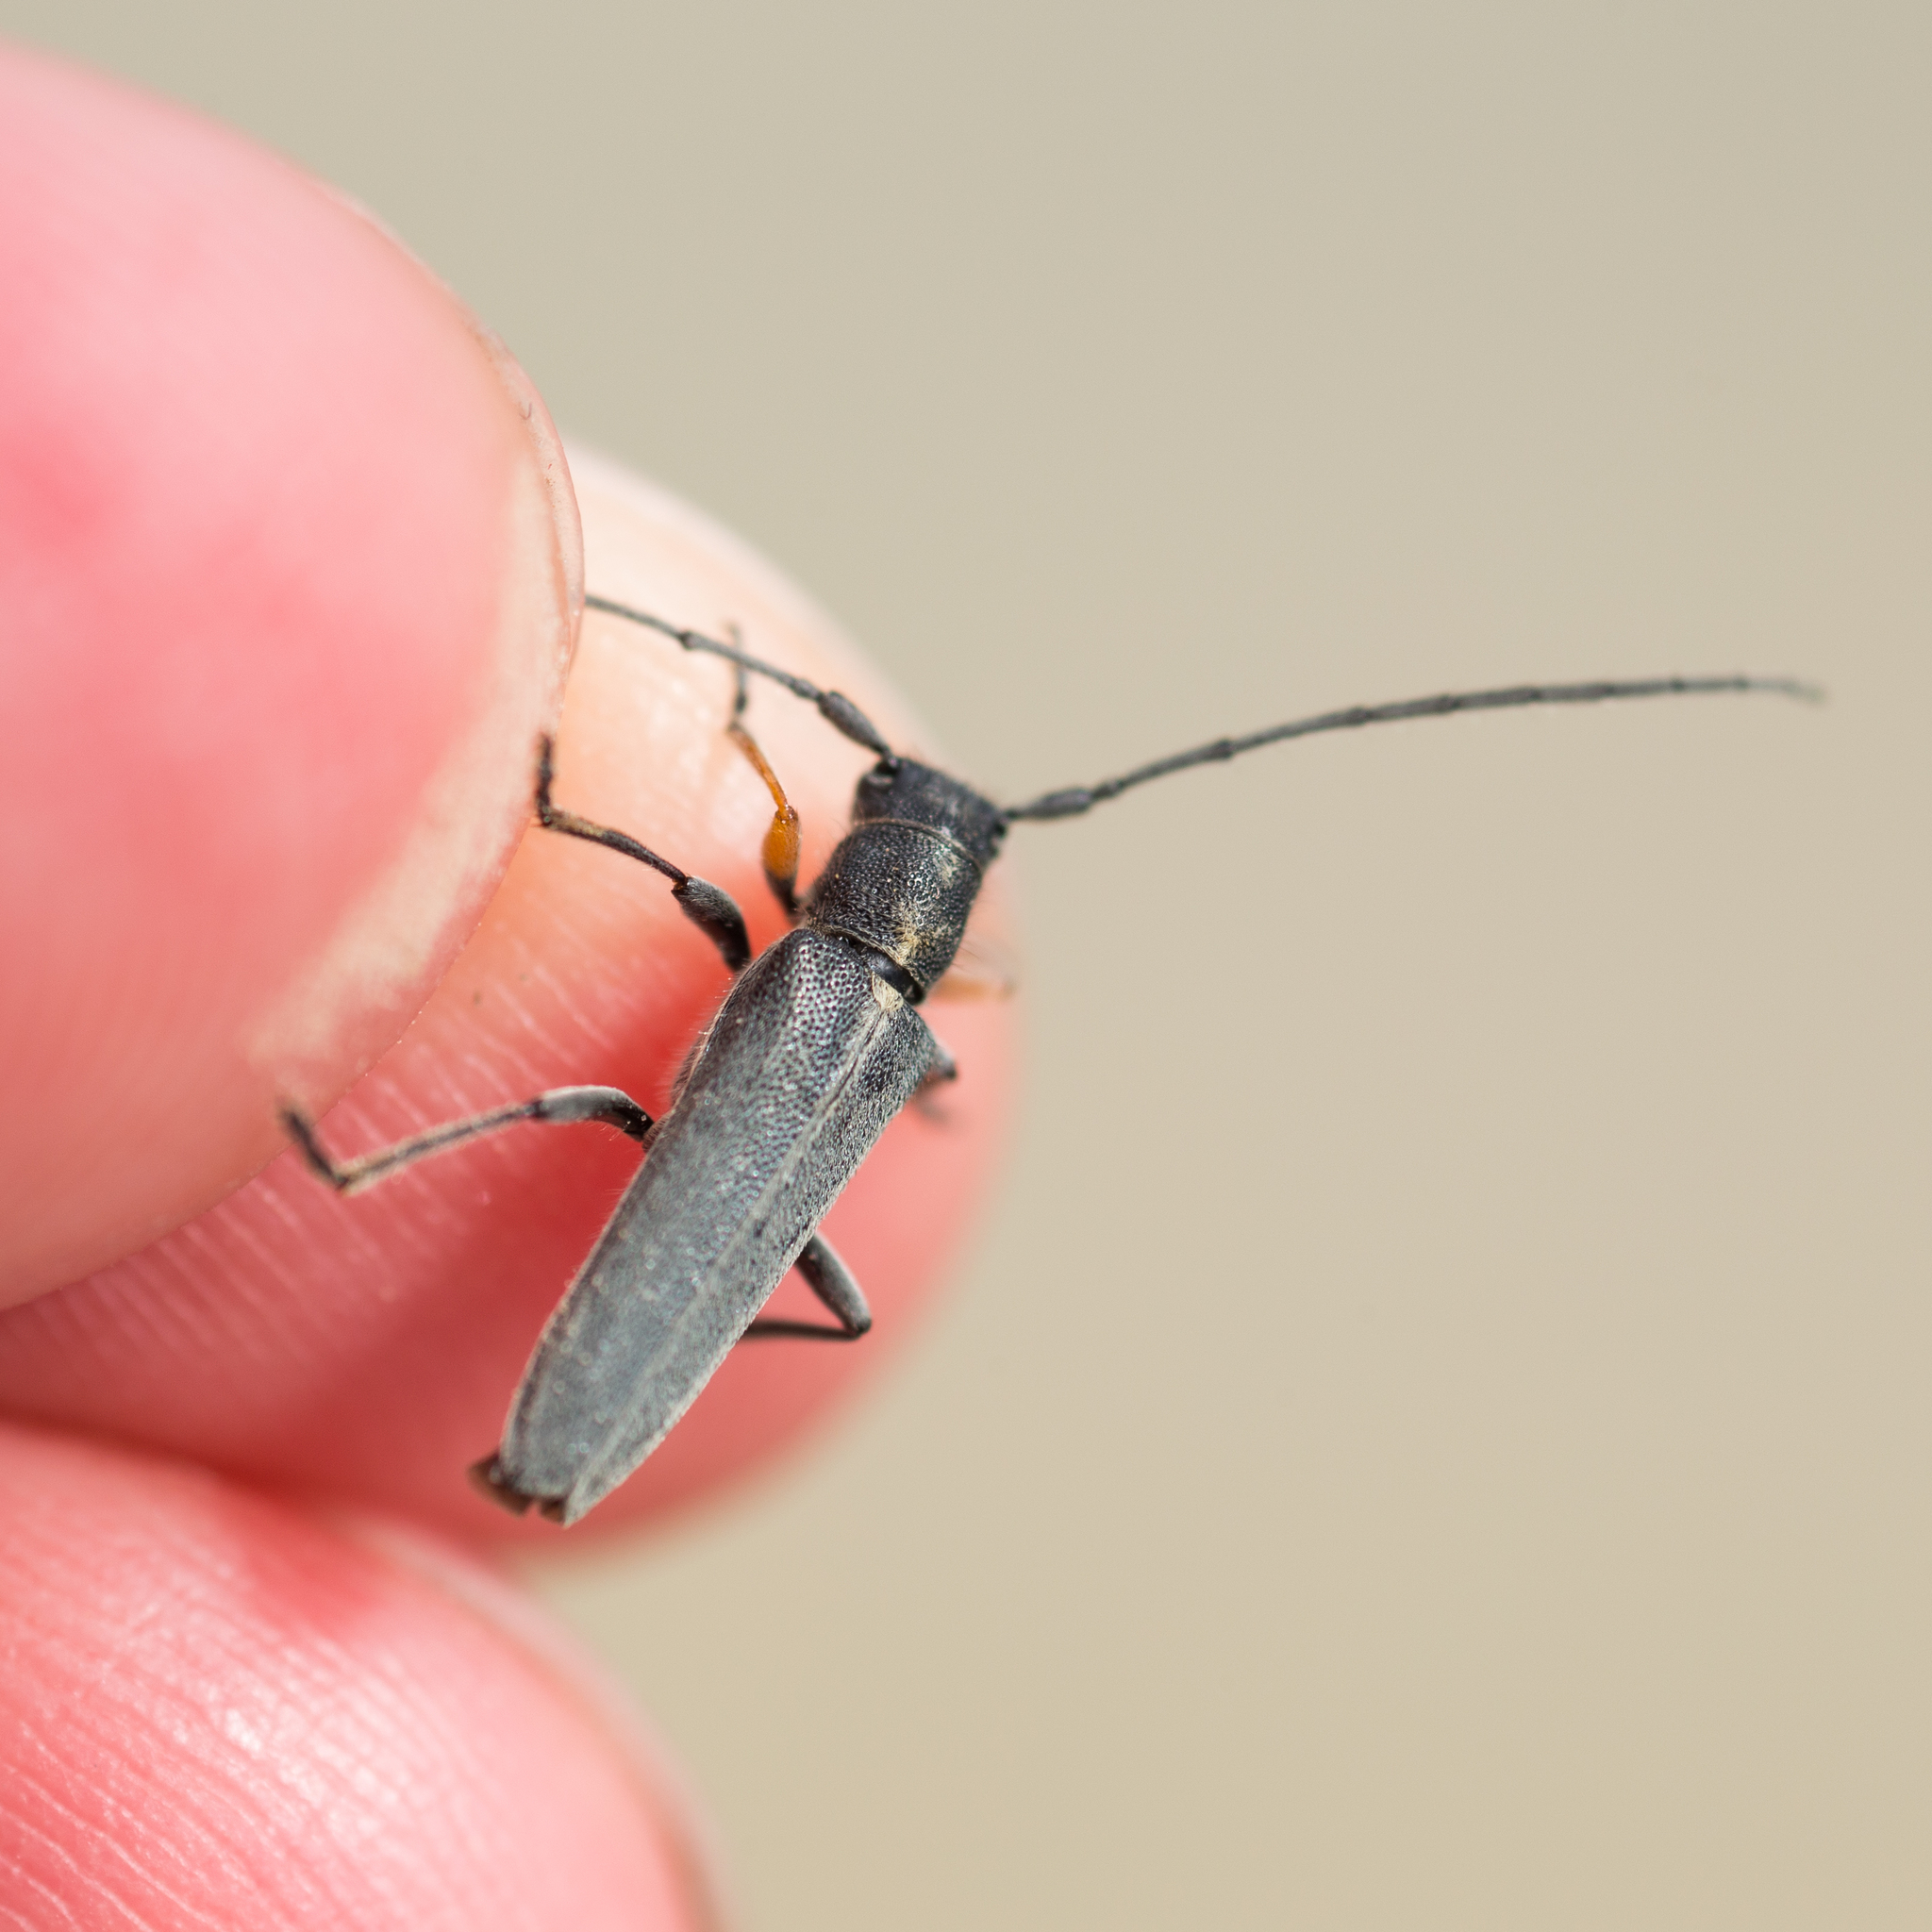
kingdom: Animalia
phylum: Arthropoda
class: Insecta
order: Coleoptera
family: Cerambycidae
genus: Phytoecia
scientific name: Phytoecia cylindrica
